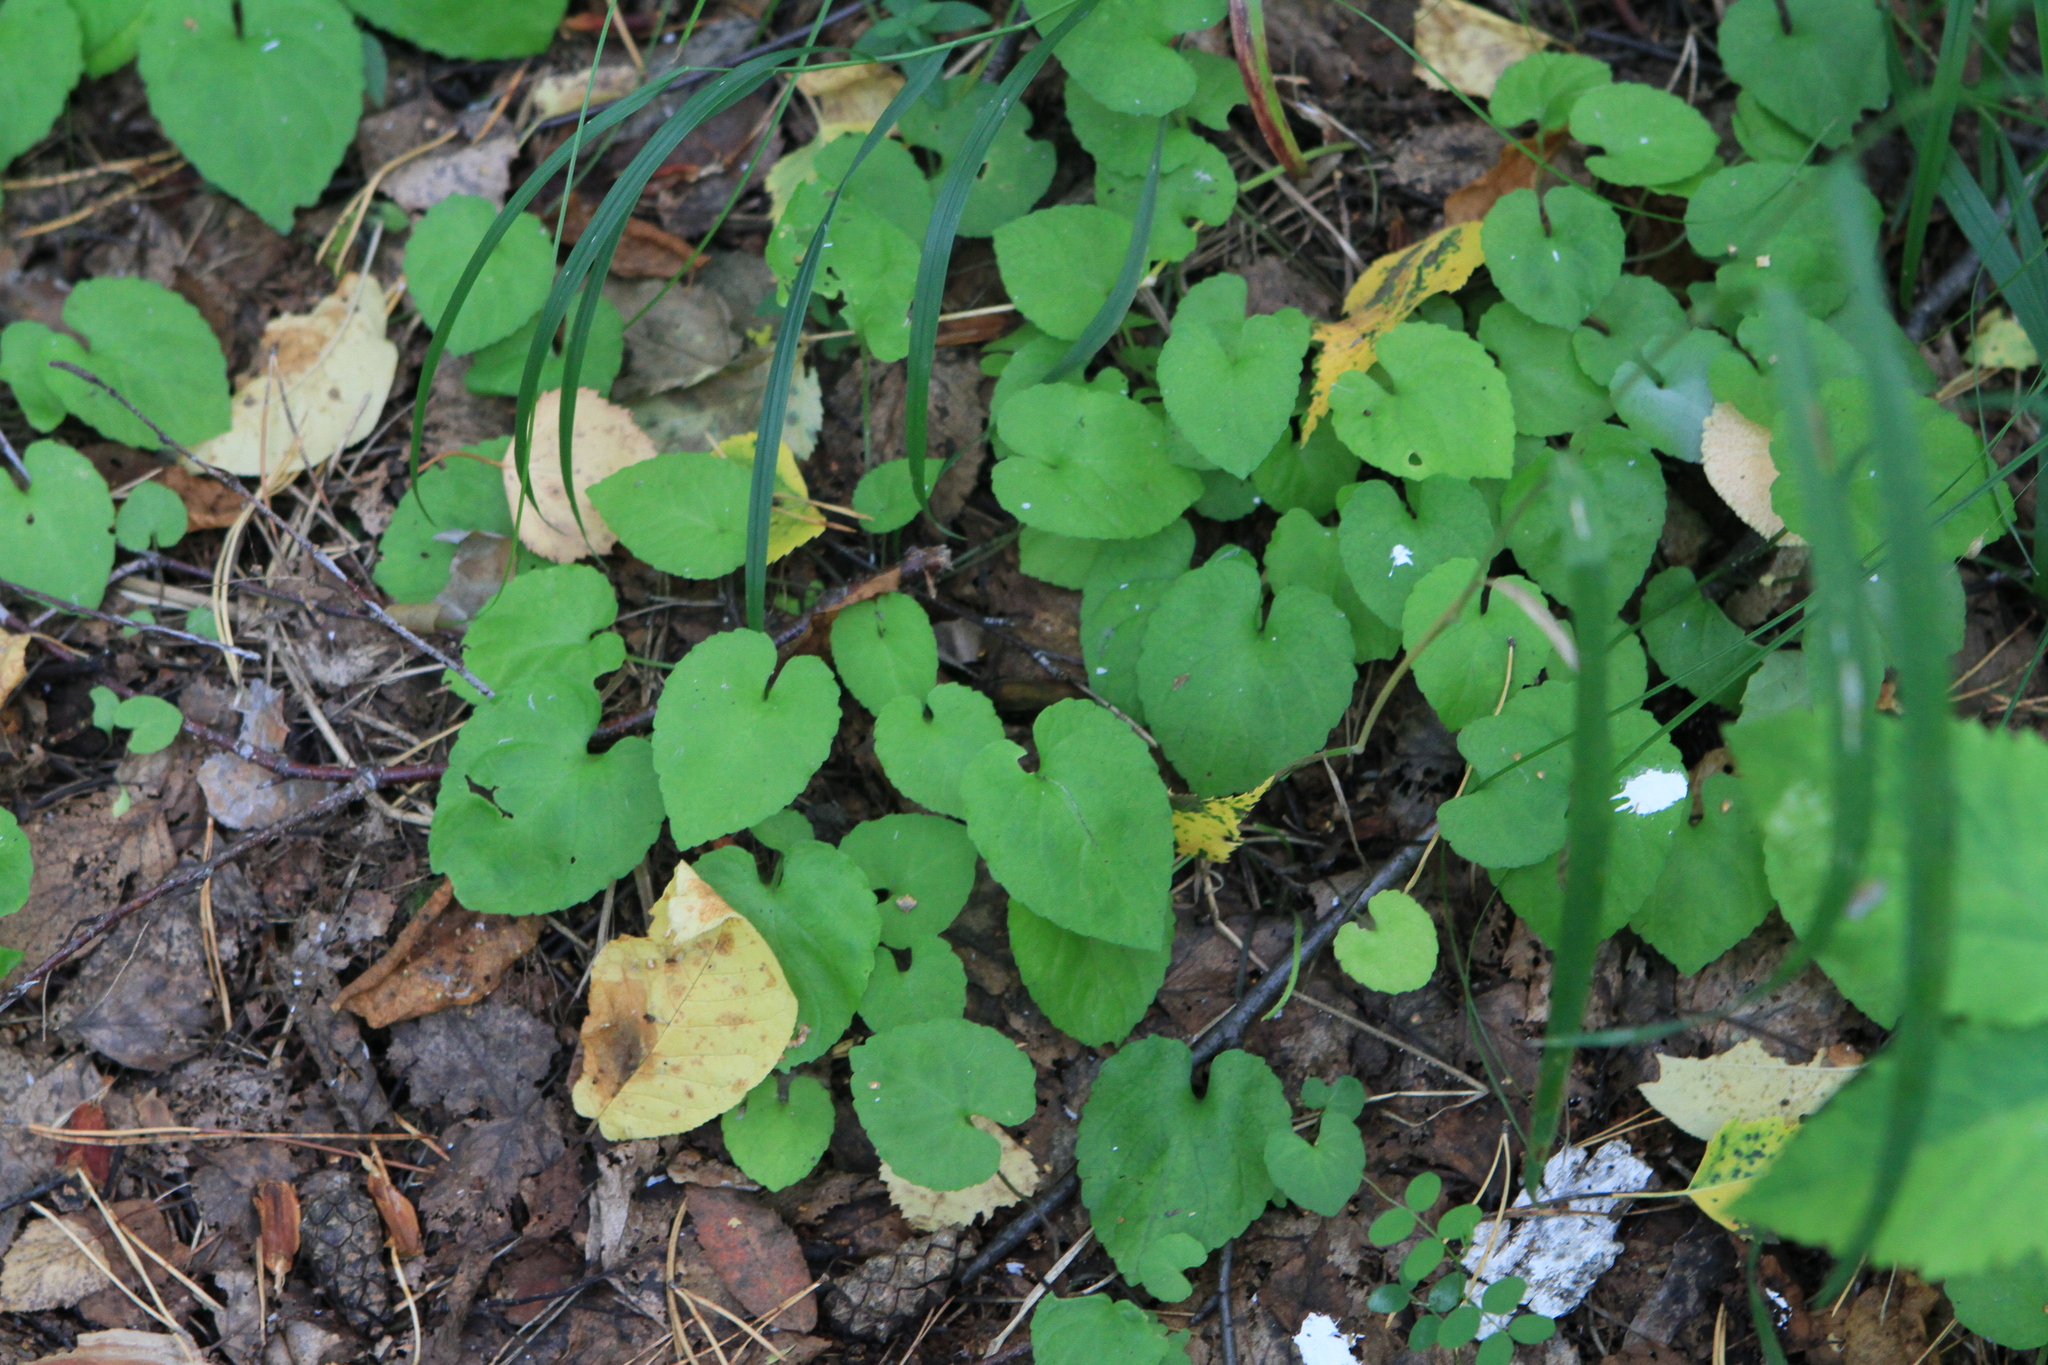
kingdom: Plantae
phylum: Tracheophyta
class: Magnoliopsida
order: Malpighiales
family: Violaceae
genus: Viola
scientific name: Viola selkirkii
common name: Selkirk's violet
